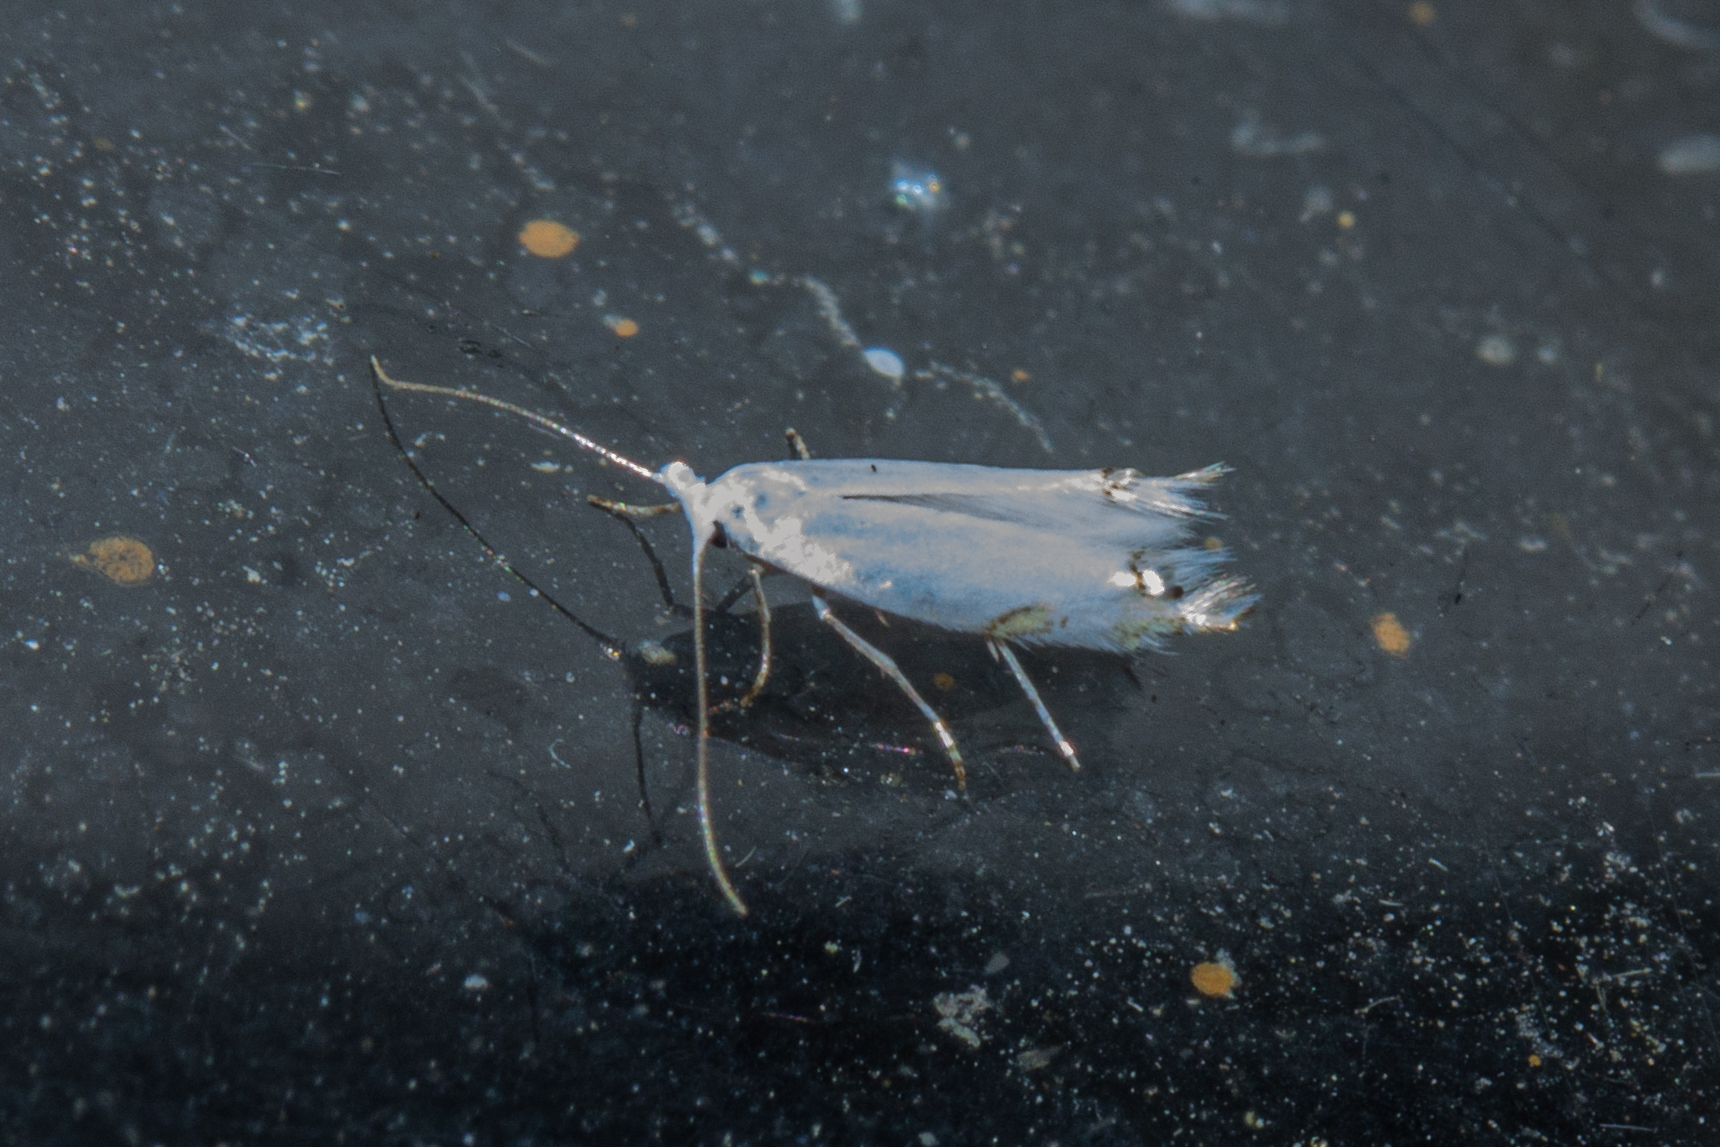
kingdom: Animalia
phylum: Arthropoda
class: Insecta
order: Lepidoptera
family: Lyonetiidae
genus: Leucoptera
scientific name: Leucoptera spartifoliella
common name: Scotch broom twig miner
